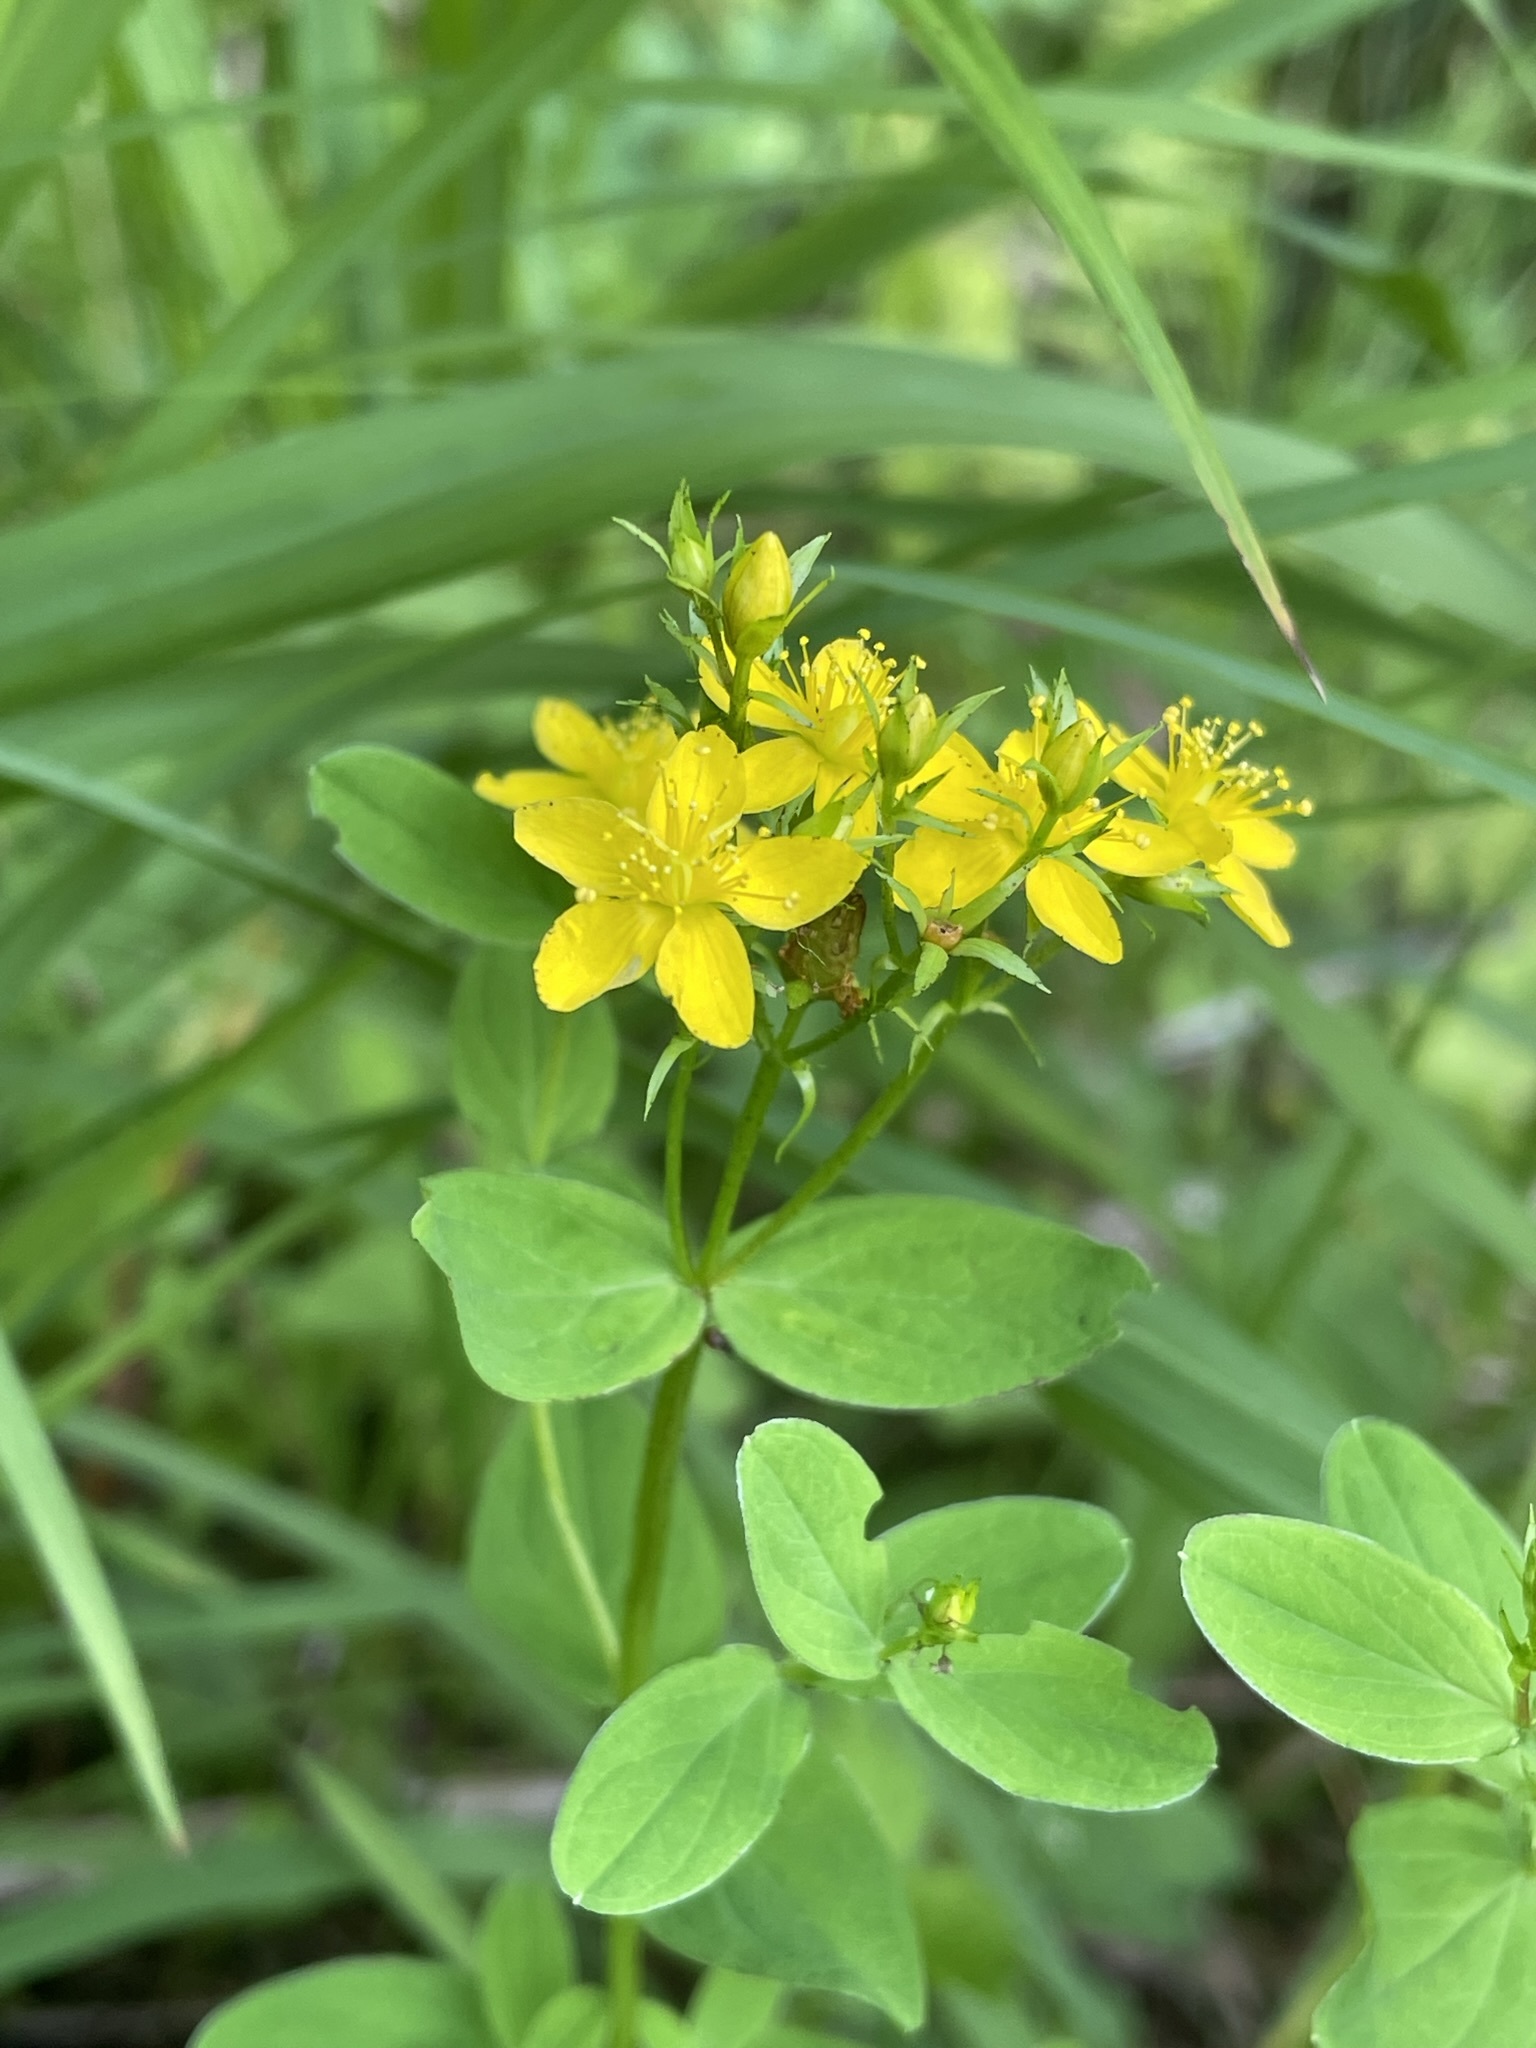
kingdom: Plantae
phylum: Tracheophyta
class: Magnoliopsida
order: Malpighiales
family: Hypericaceae
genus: Hypericum
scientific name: Hypericum tetrapterum
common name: Square-stalked st. john's-wort
